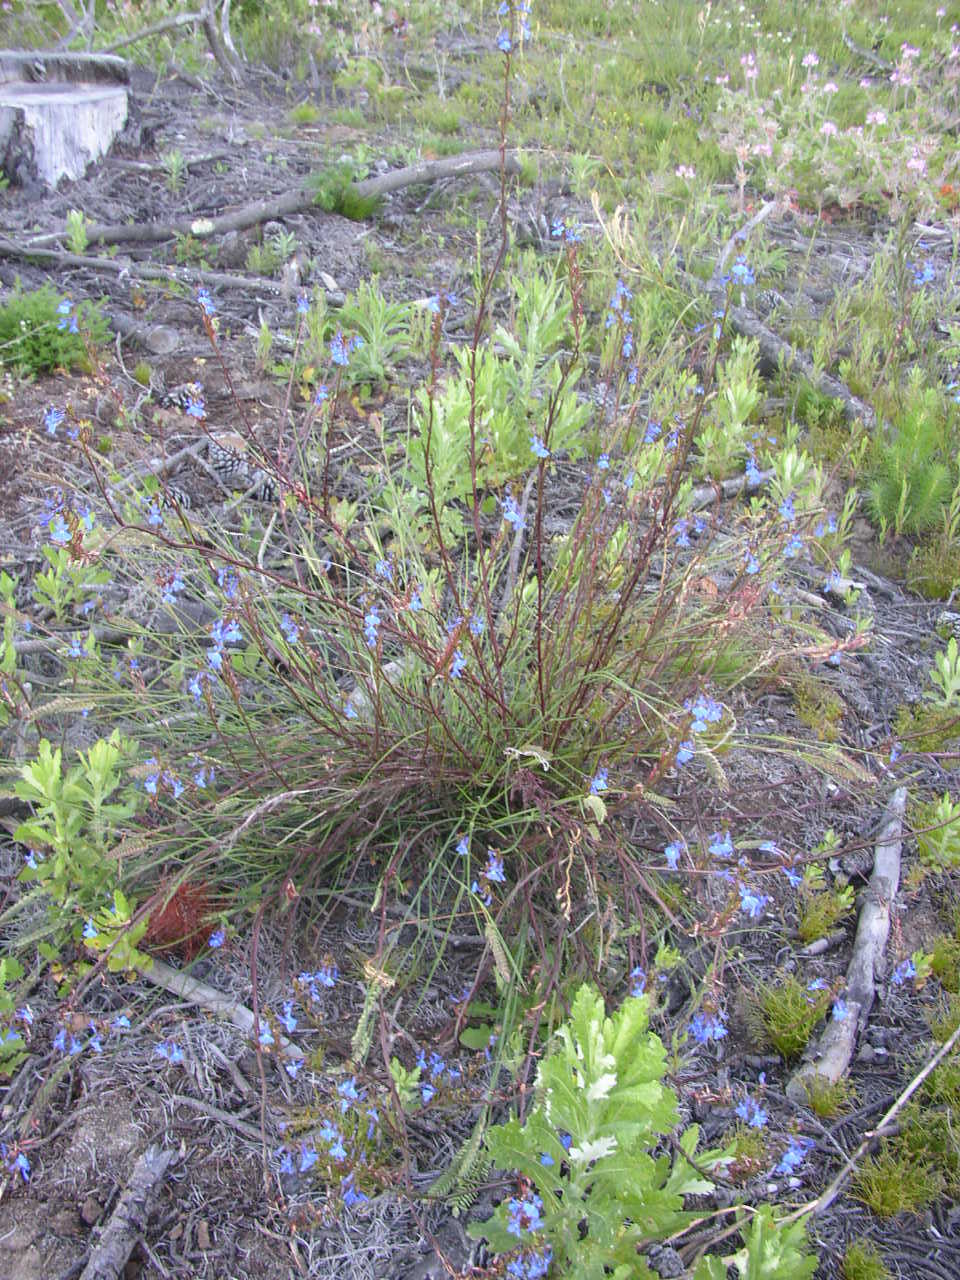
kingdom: Plantae
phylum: Tracheophyta
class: Magnoliopsida
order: Asterales
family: Campanulaceae
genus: Lobelia
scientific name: Lobelia comosa
